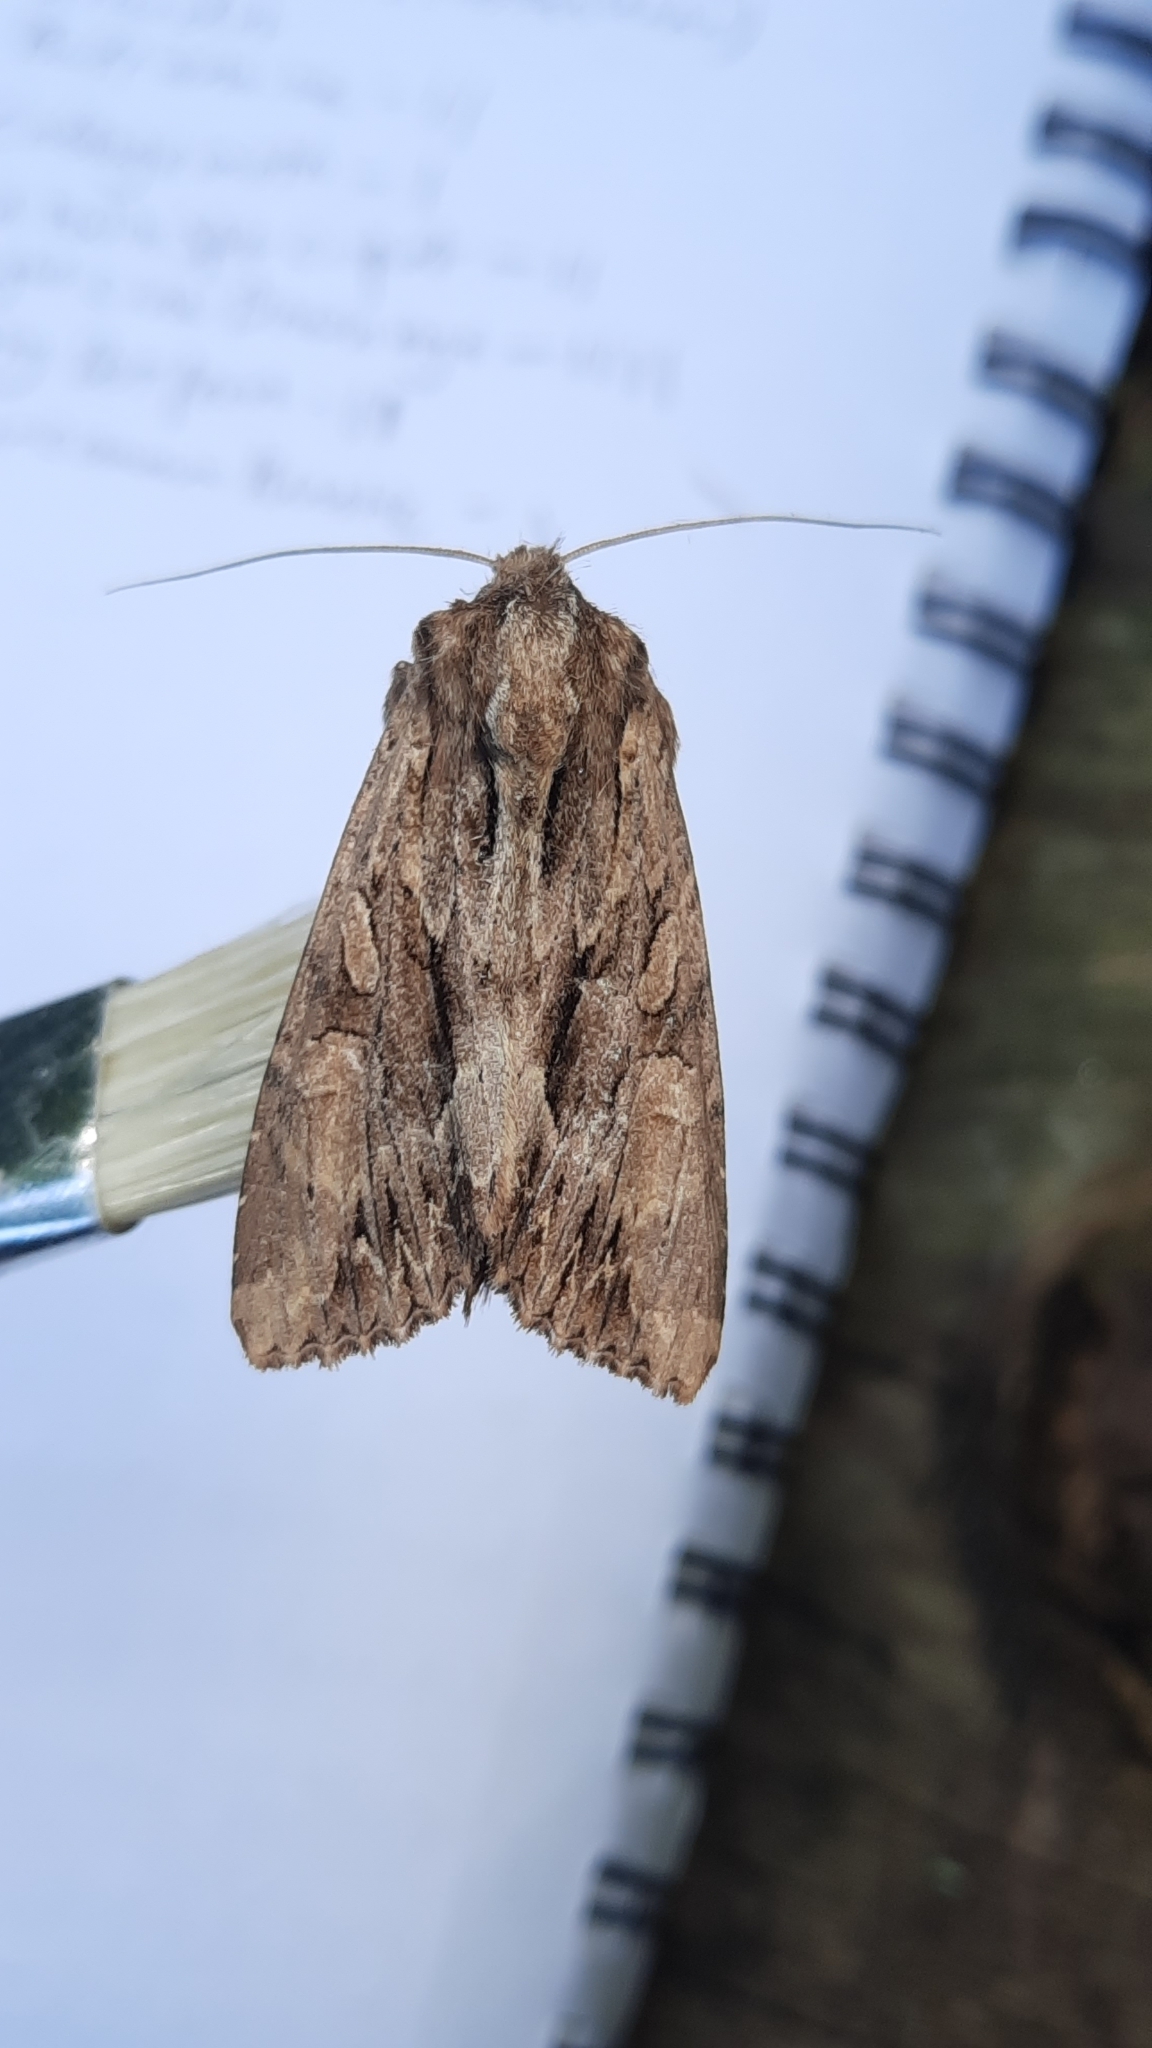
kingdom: Animalia
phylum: Arthropoda
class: Insecta
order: Lepidoptera
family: Noctuidae
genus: Apamea
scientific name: Apamea monoglypha
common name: Dark arches
